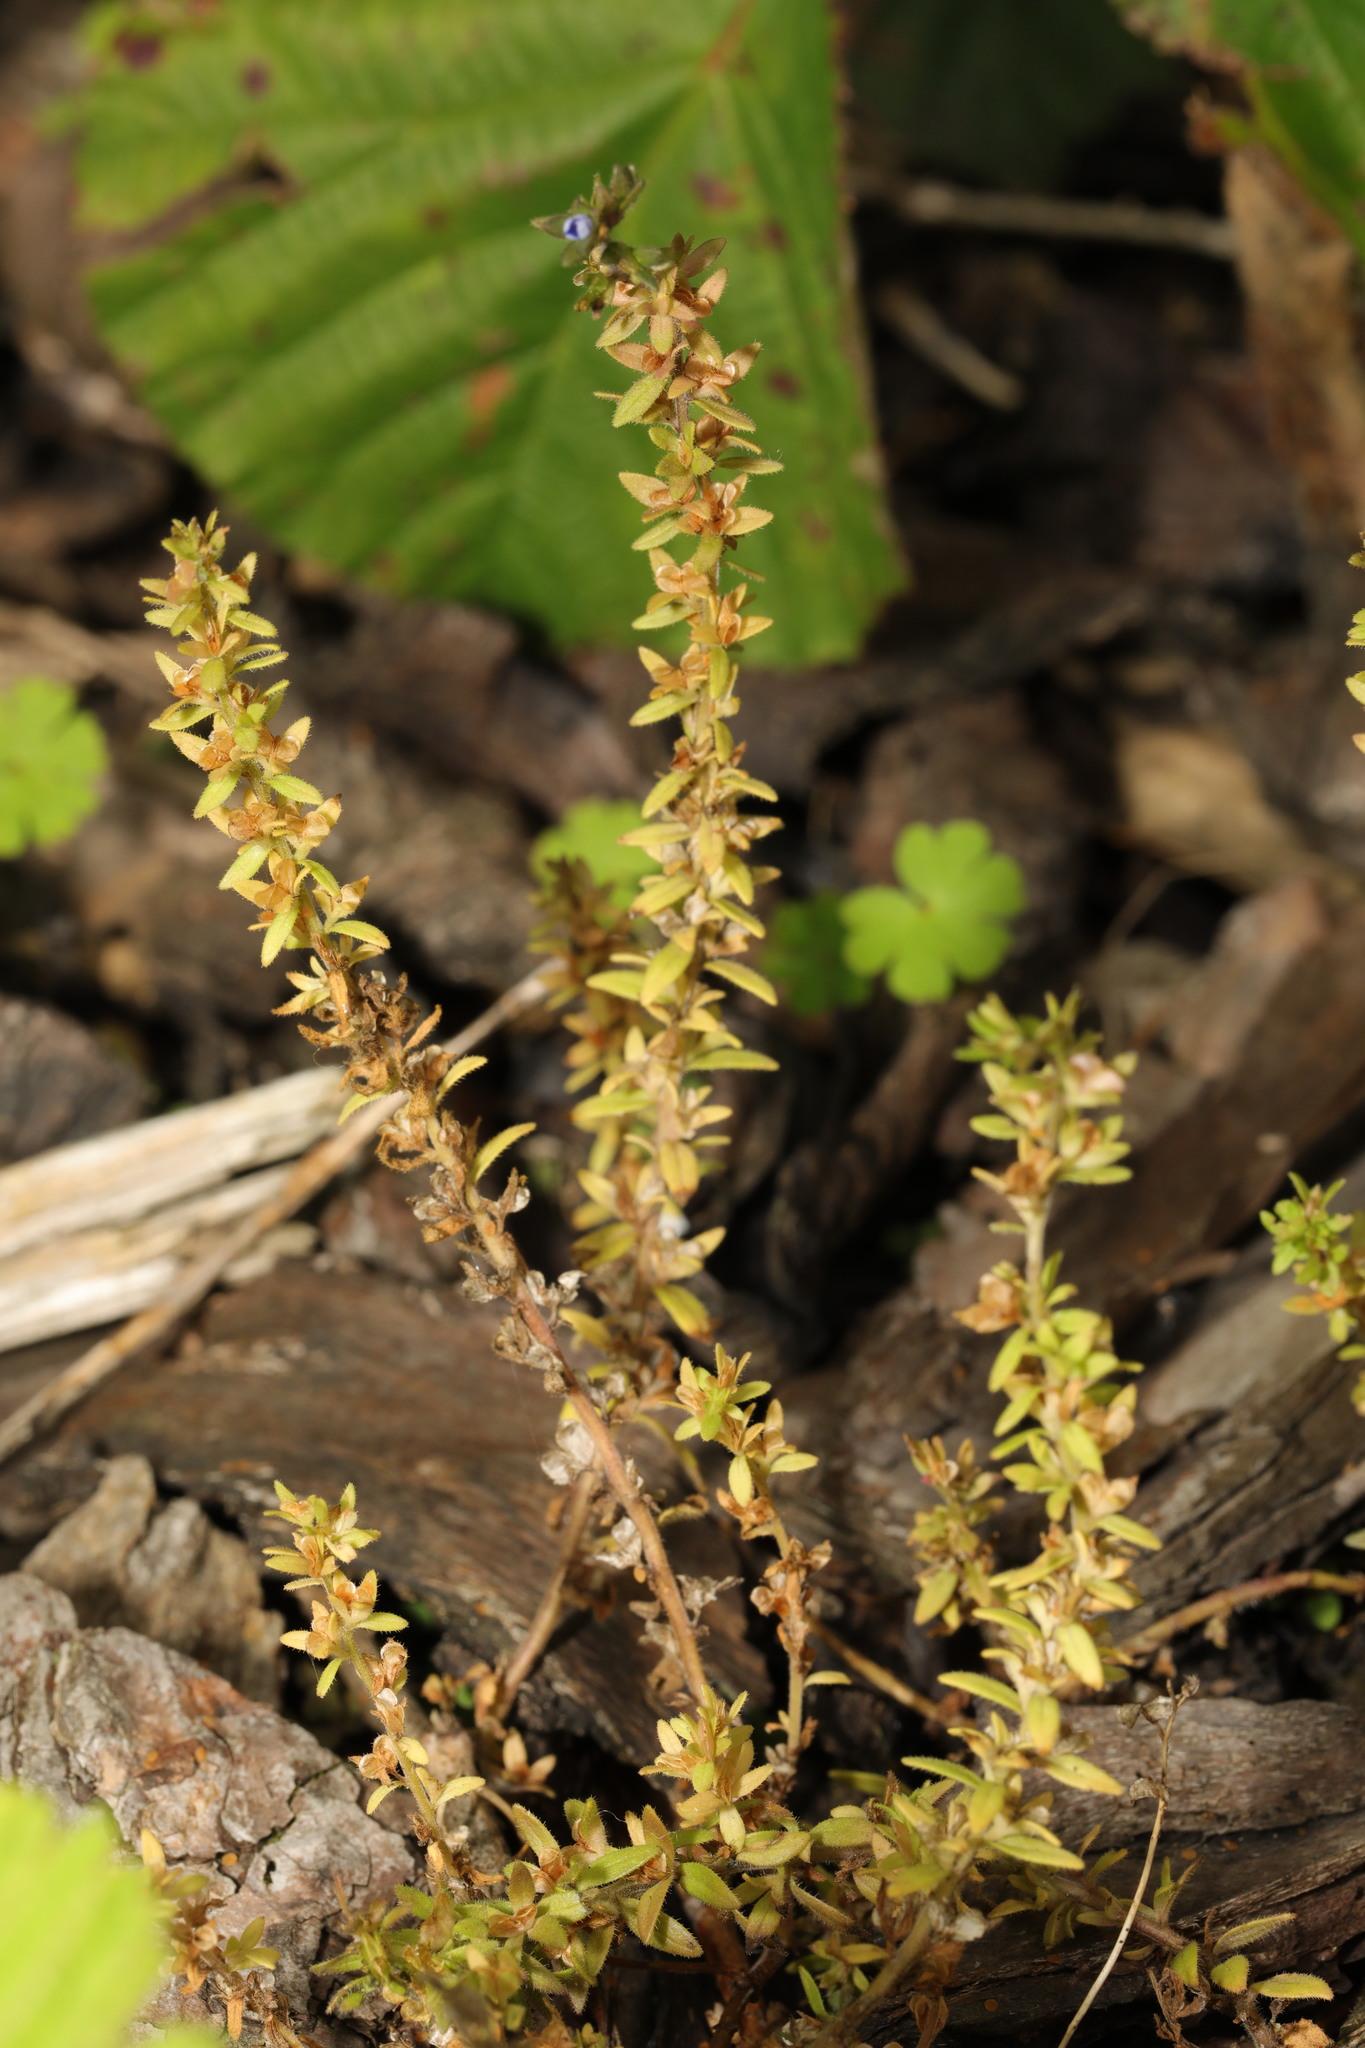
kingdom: Plantae
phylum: Tracheophyta
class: Magnoliopsida
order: Lamiales
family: Plantaginaceae
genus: Veronica
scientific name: Veronica arvensis
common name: Corn speedwell
